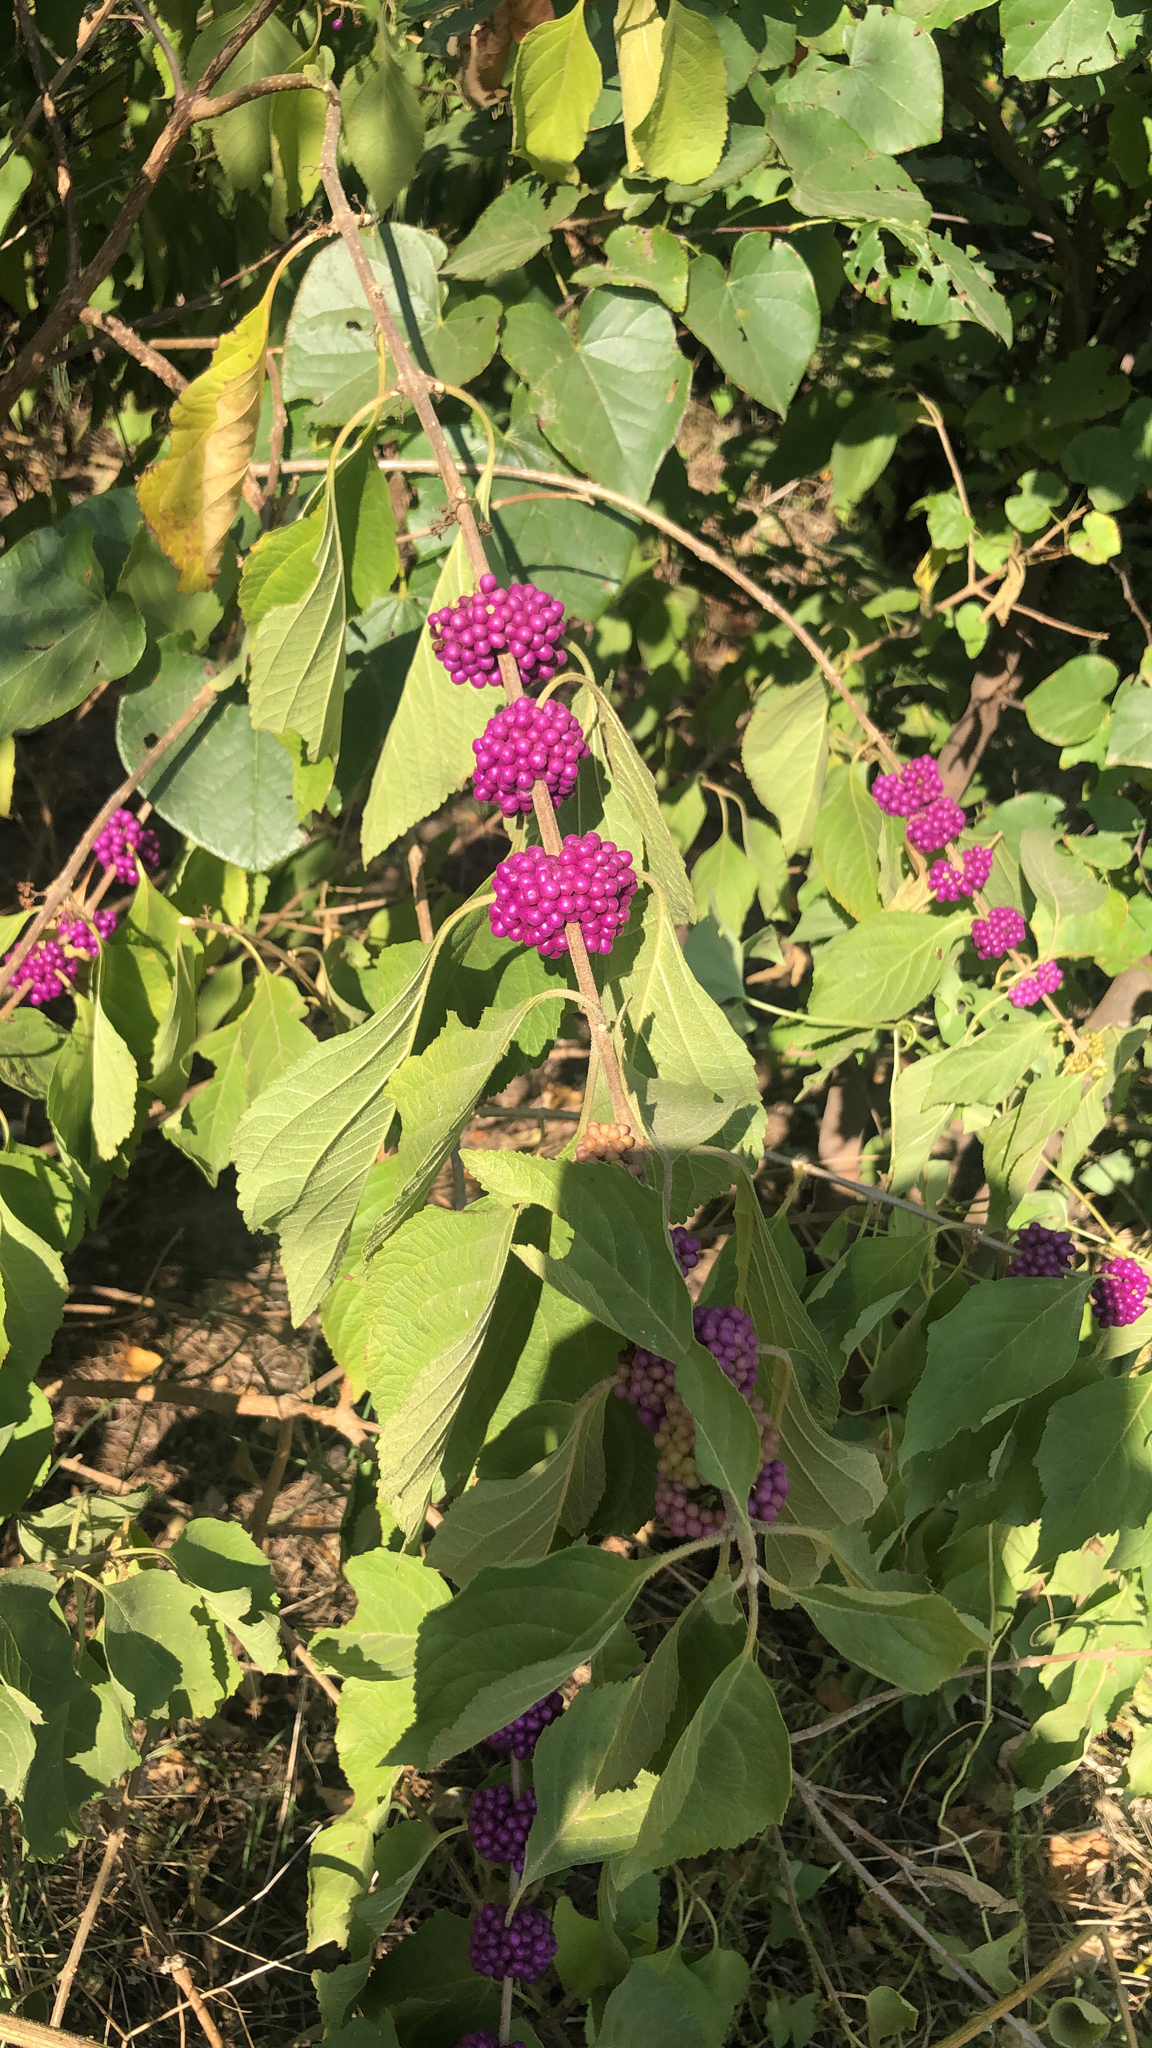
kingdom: Plantae
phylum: Tracheophyta
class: Magnoliopsida
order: Lamiales
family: Lamiaceae
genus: Callicarpa
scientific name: Callicarpa americana
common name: American beautyberry
